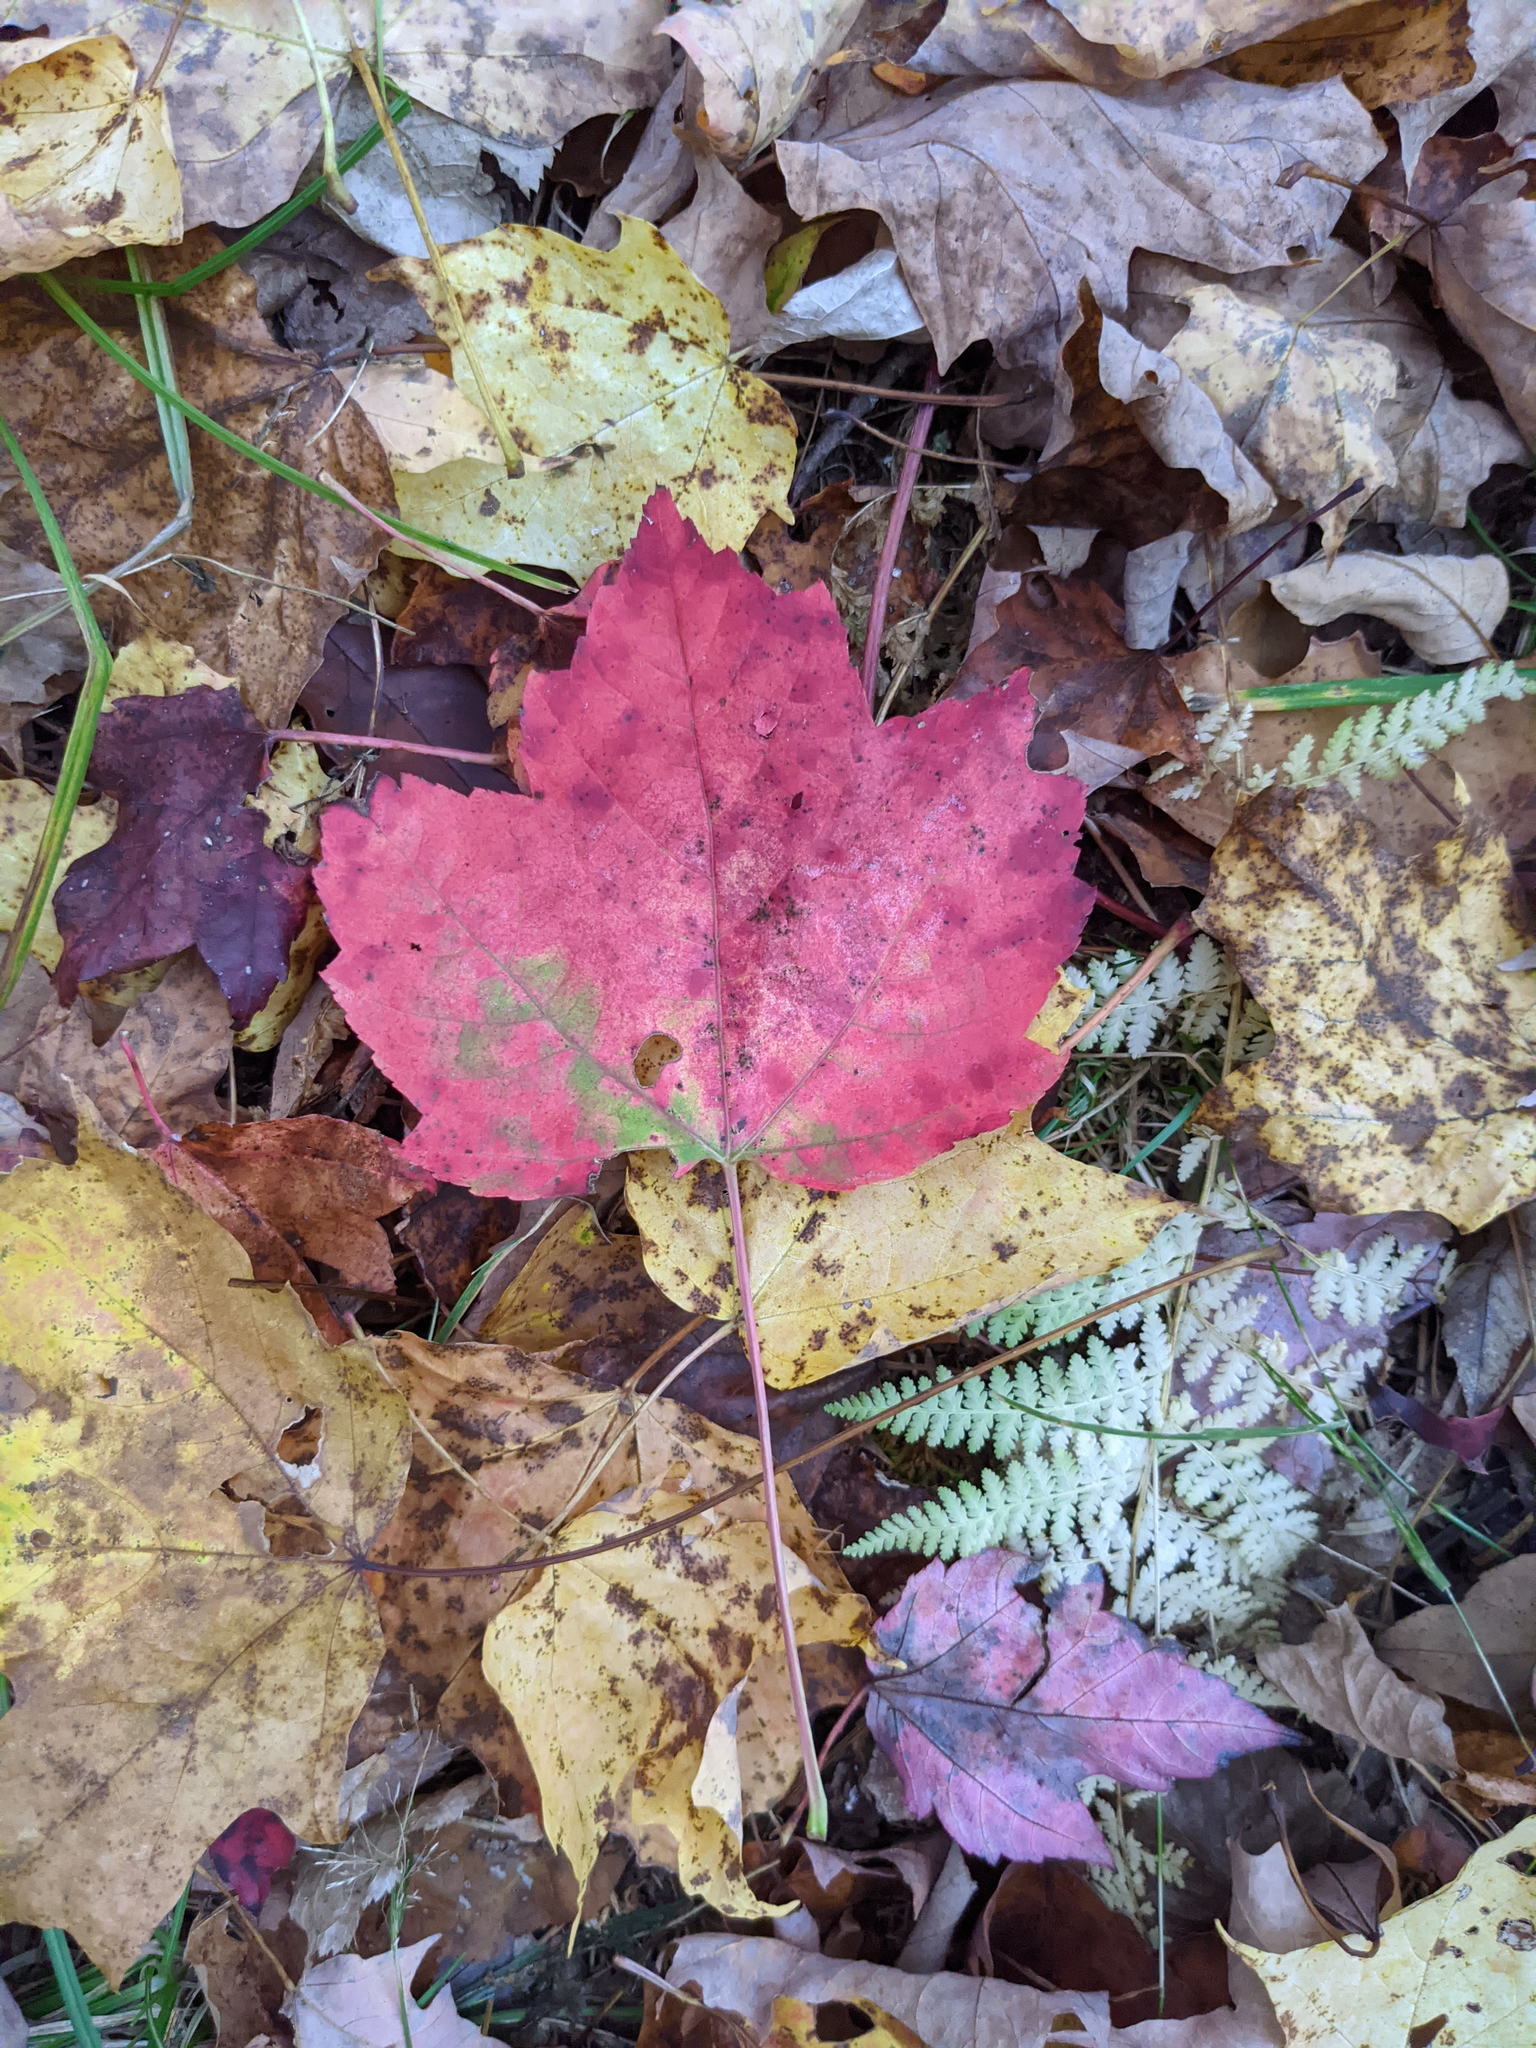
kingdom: Plantae
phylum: Tracheophyta
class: Magnoliopsida
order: Sapindales
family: Sapindaceae
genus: Acer
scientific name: Acer rubrum
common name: Red maple
